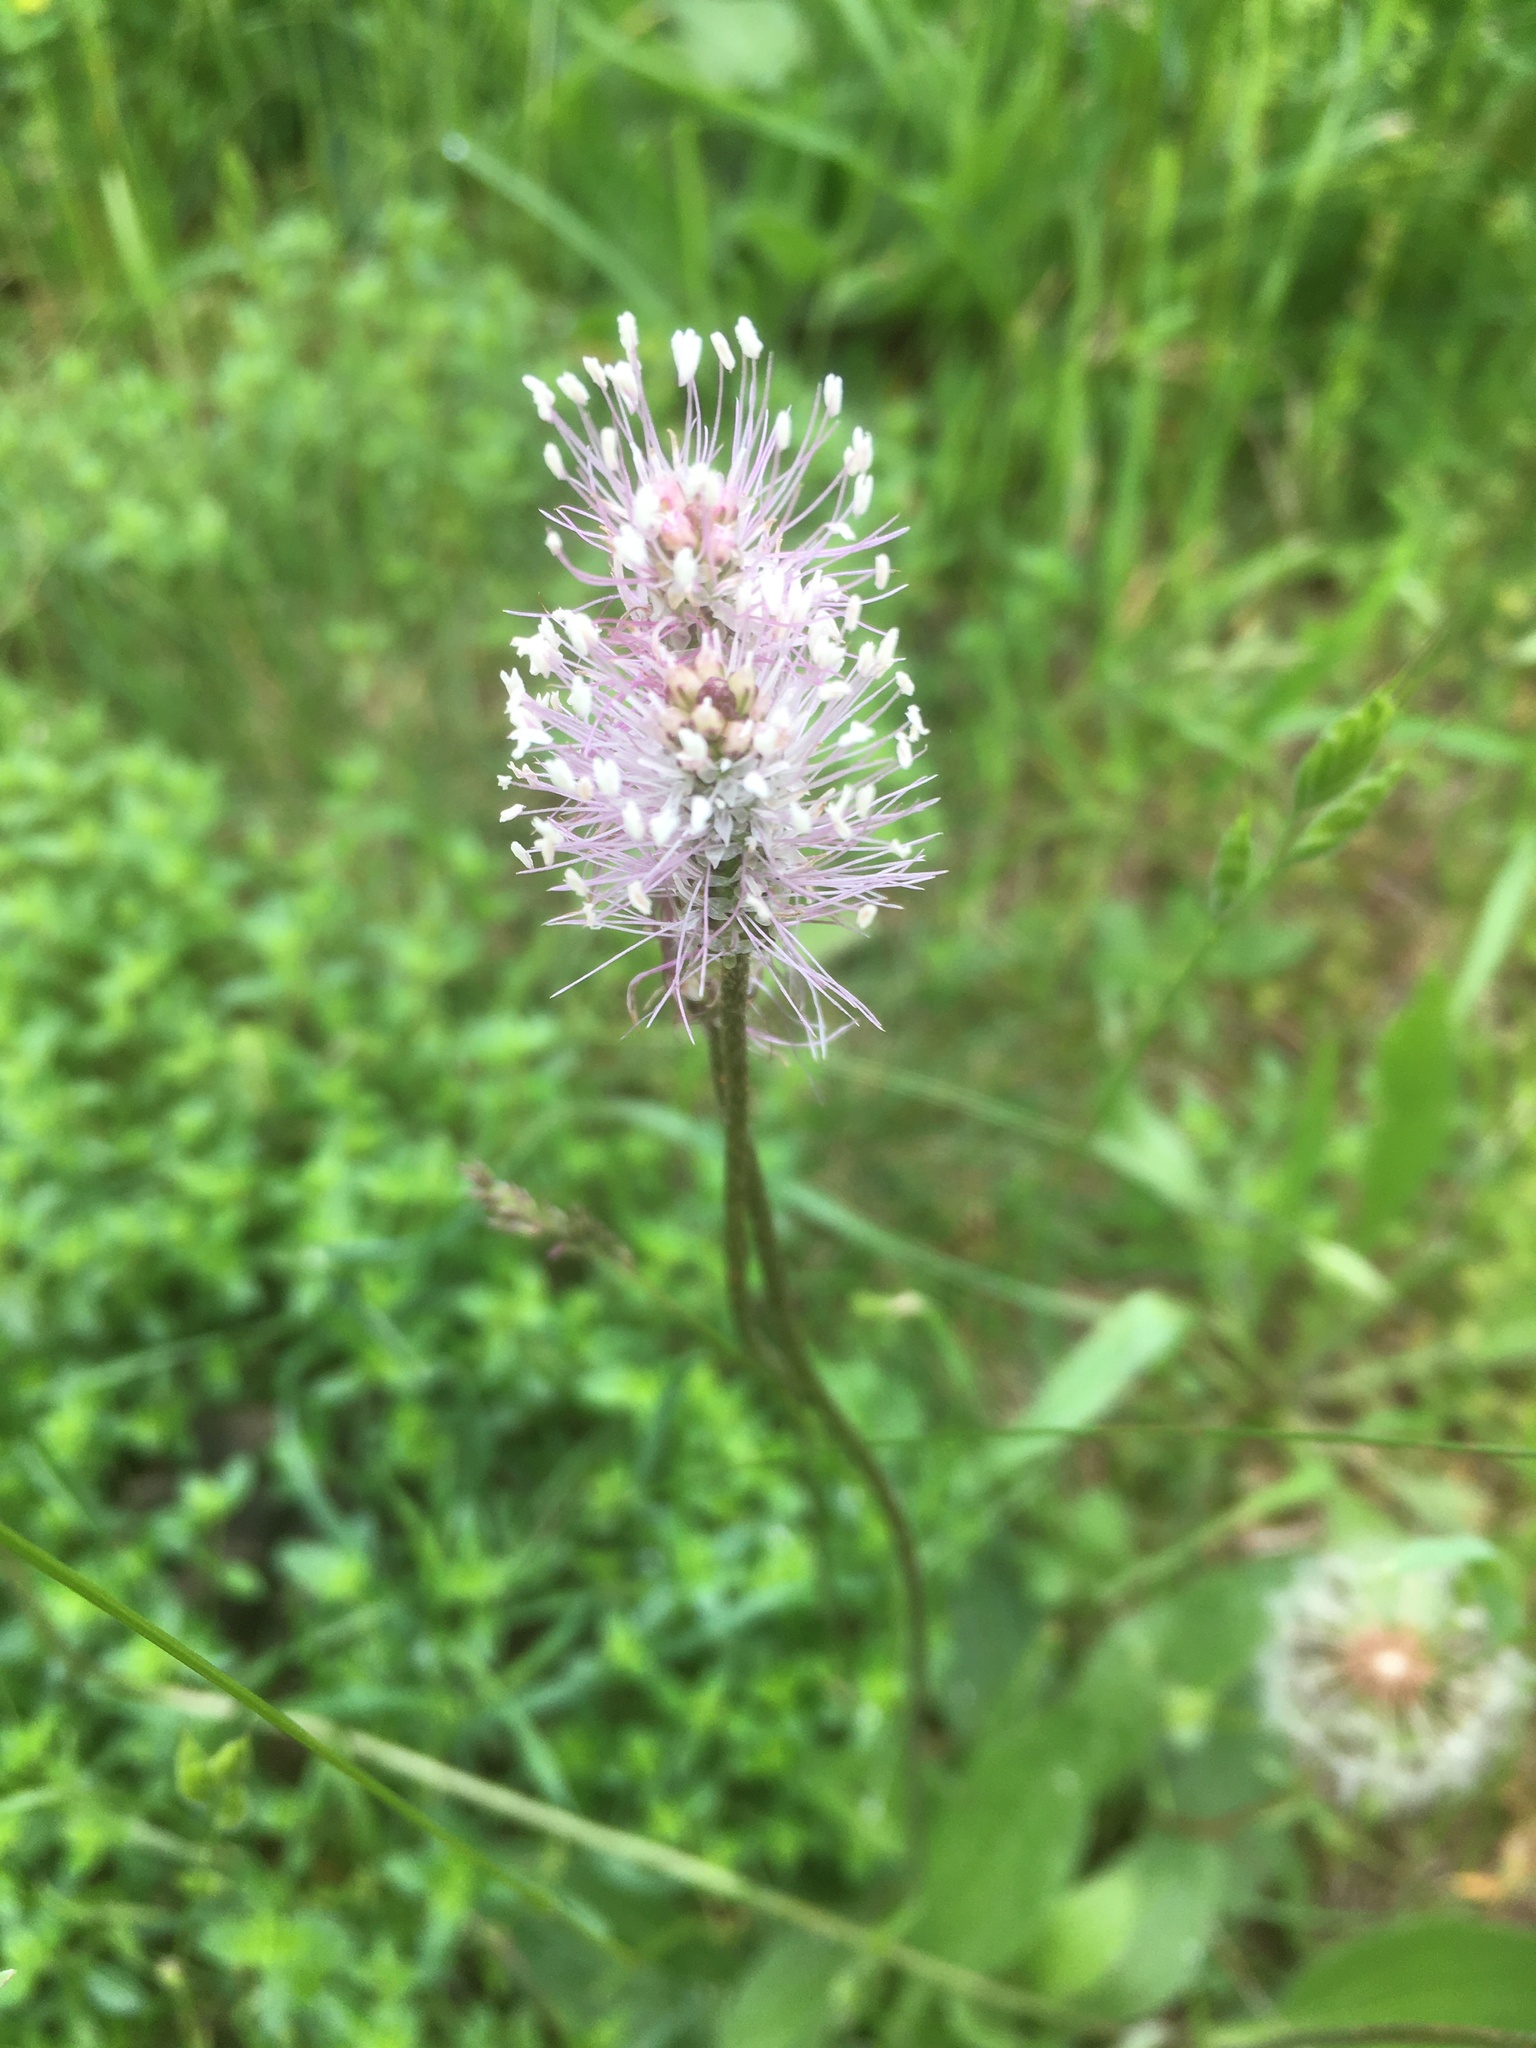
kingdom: Plantae
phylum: Tracheophyta
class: Magnoliopsida
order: Lamiales
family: Plantaginaceae
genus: Plantago
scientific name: Plantago media
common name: Hoary plantain
